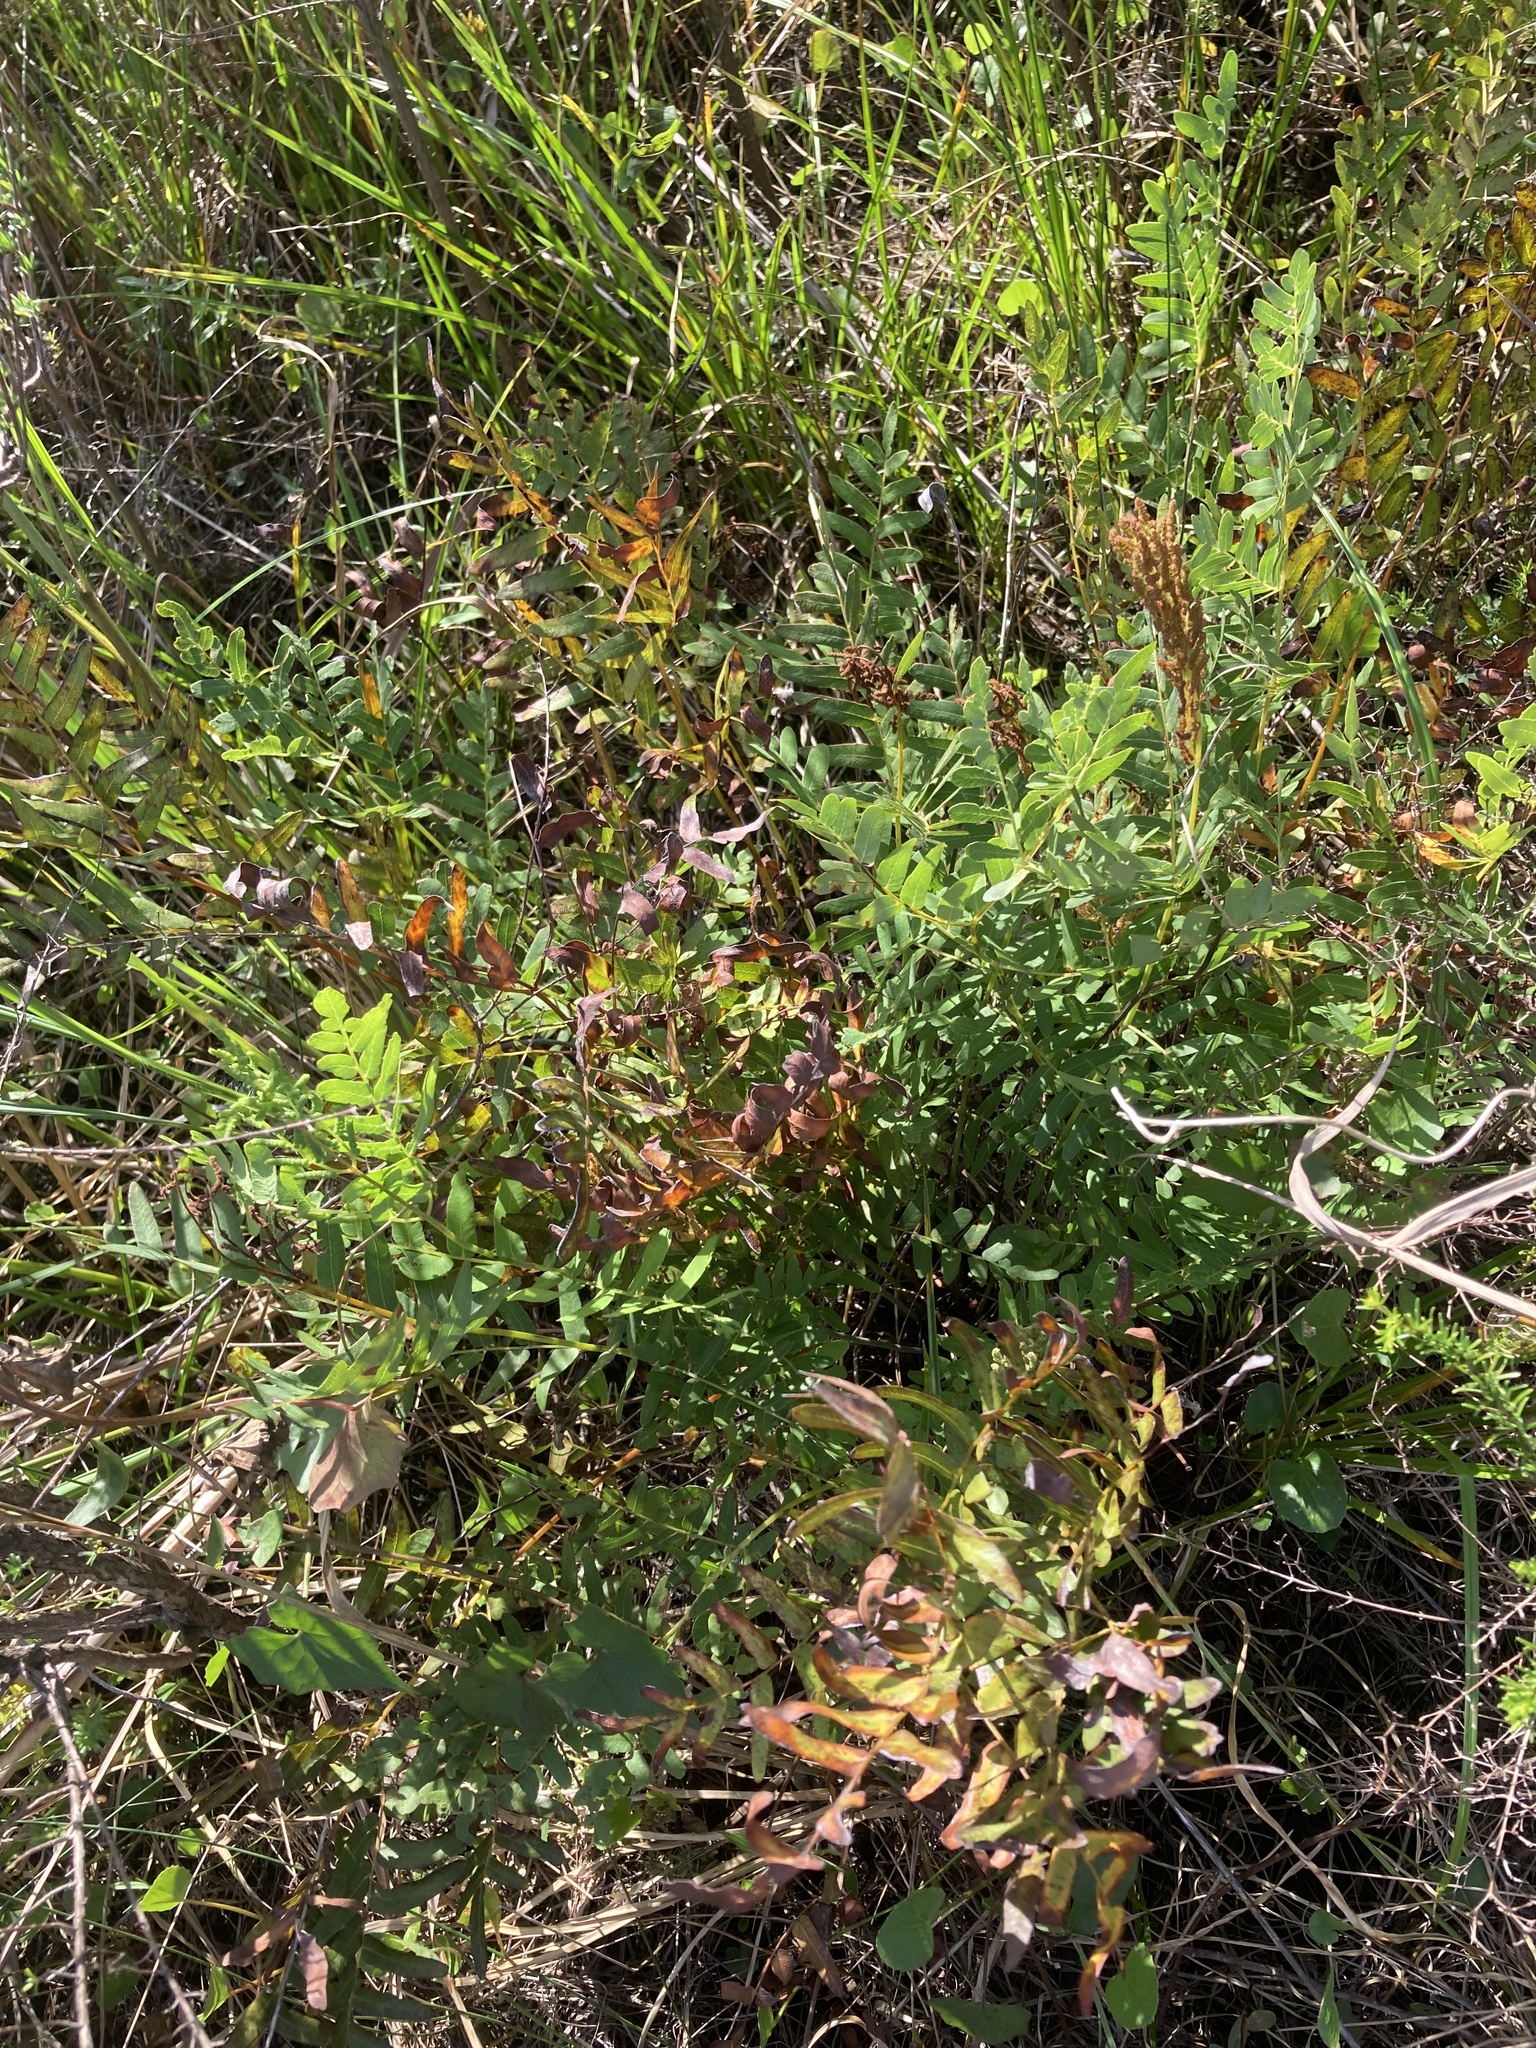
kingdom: Plantae
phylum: Tracheophyta
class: Polypodiopsida
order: Osmundales
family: Osmundaceae
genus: Osmunda
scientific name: Osmunda spectabilis
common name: American royal fern
